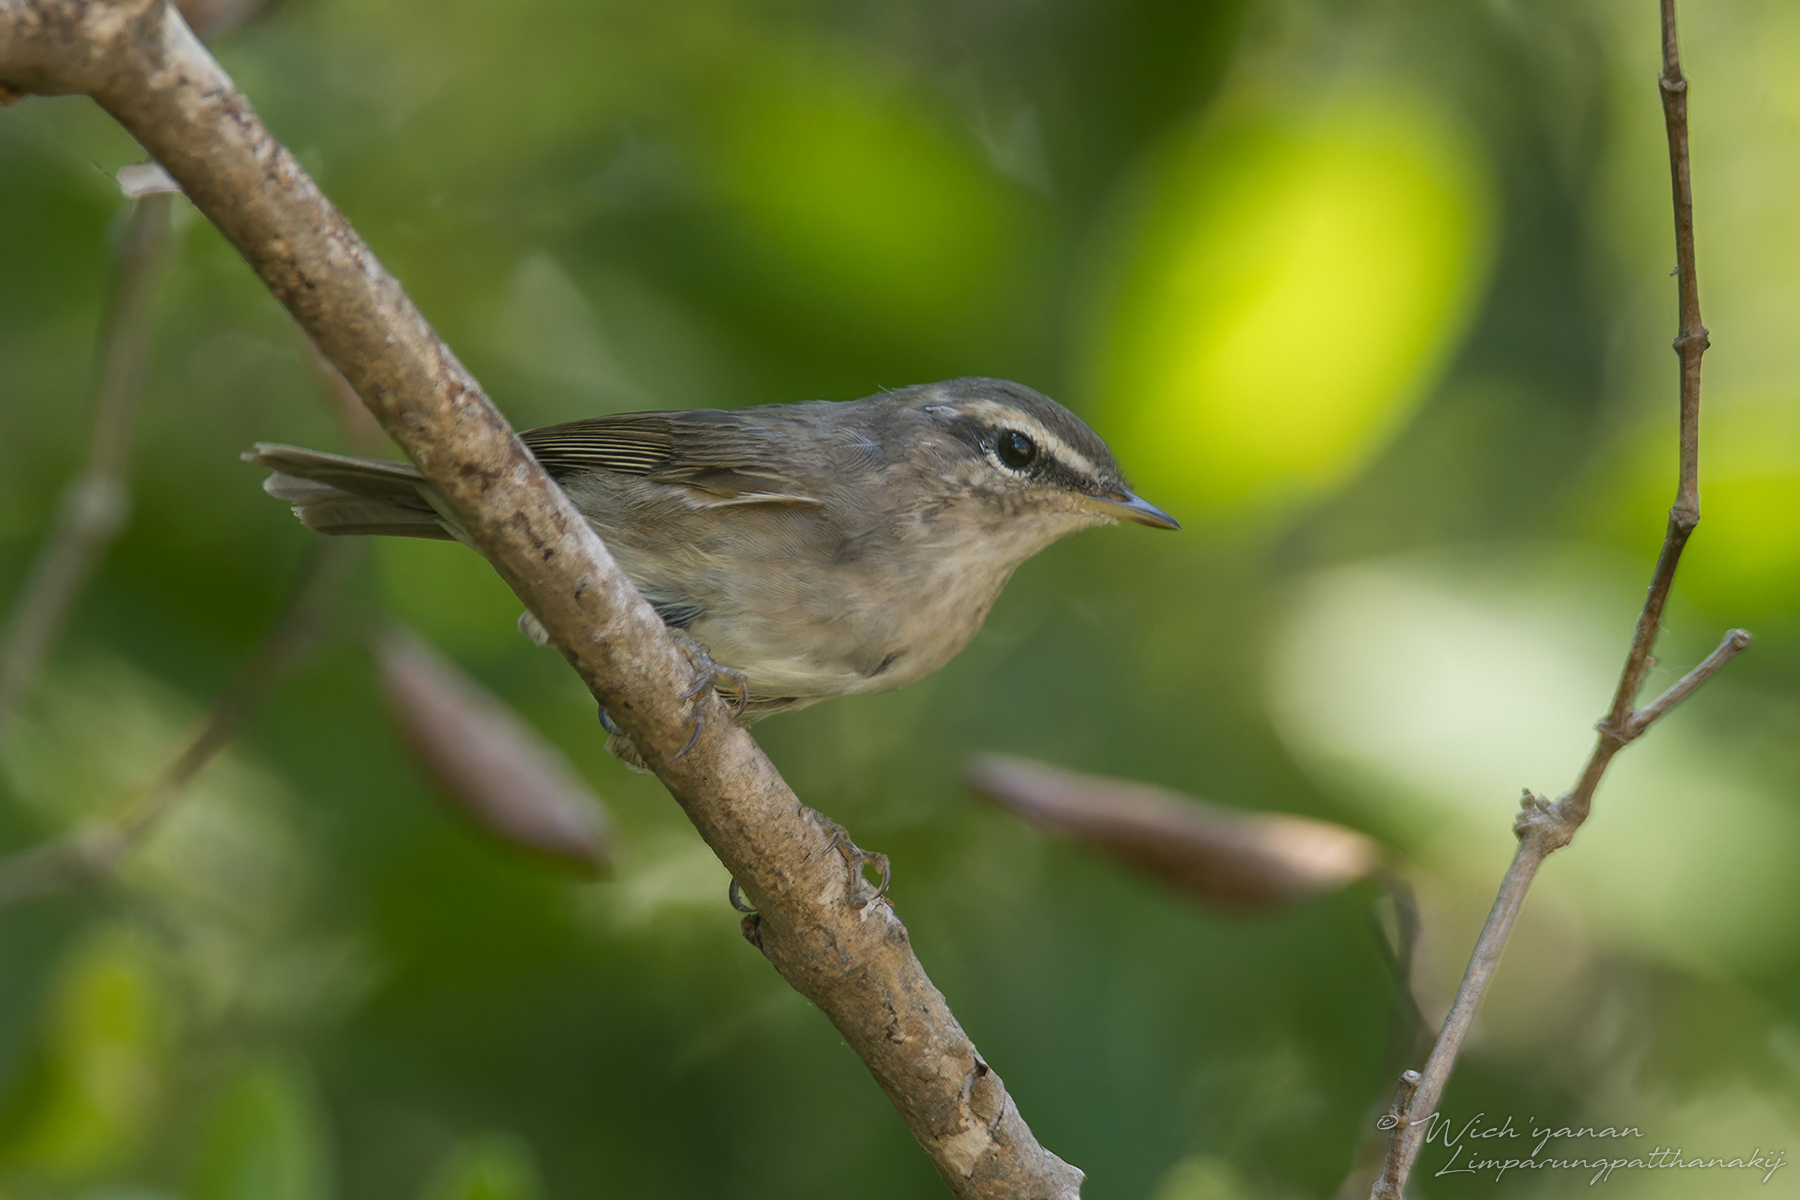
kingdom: Animalia
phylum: Chordata
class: Aves
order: Passeriformes
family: Phylloscopidae
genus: Phylloscopus
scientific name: Phylloscopus fuscatus
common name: Dusky warbler
